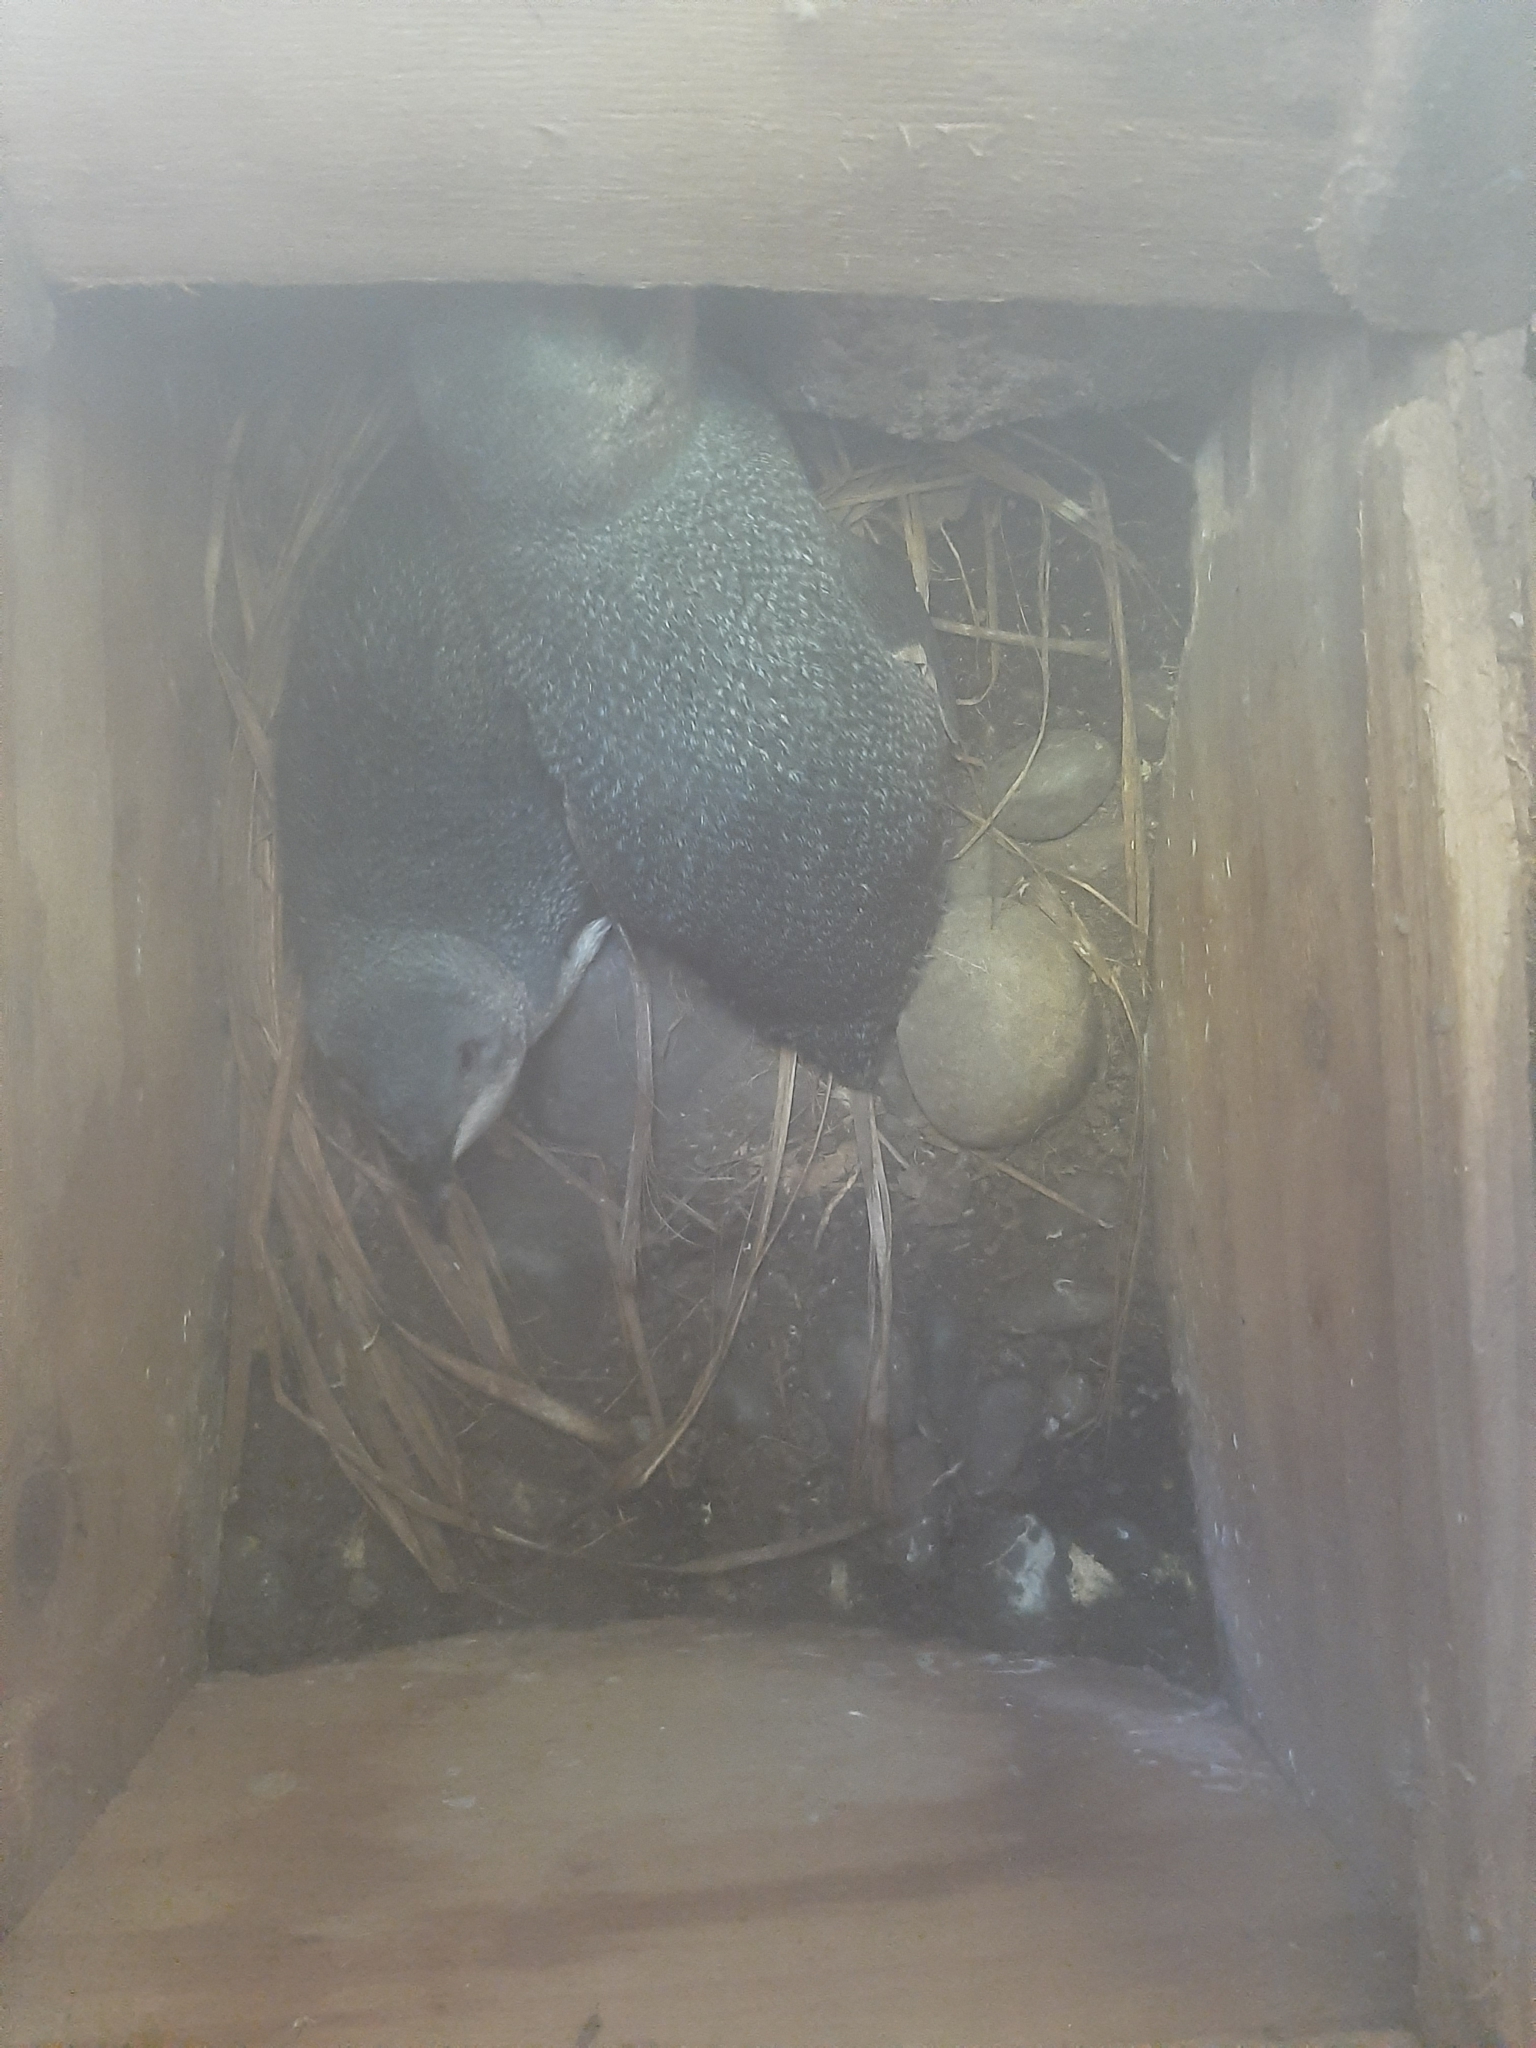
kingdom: Animalia
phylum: Chordata
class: Aves
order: Sphenisciformes
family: Spheniscidae
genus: Eudyptula
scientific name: Eudyptula minor
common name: Little penguin
